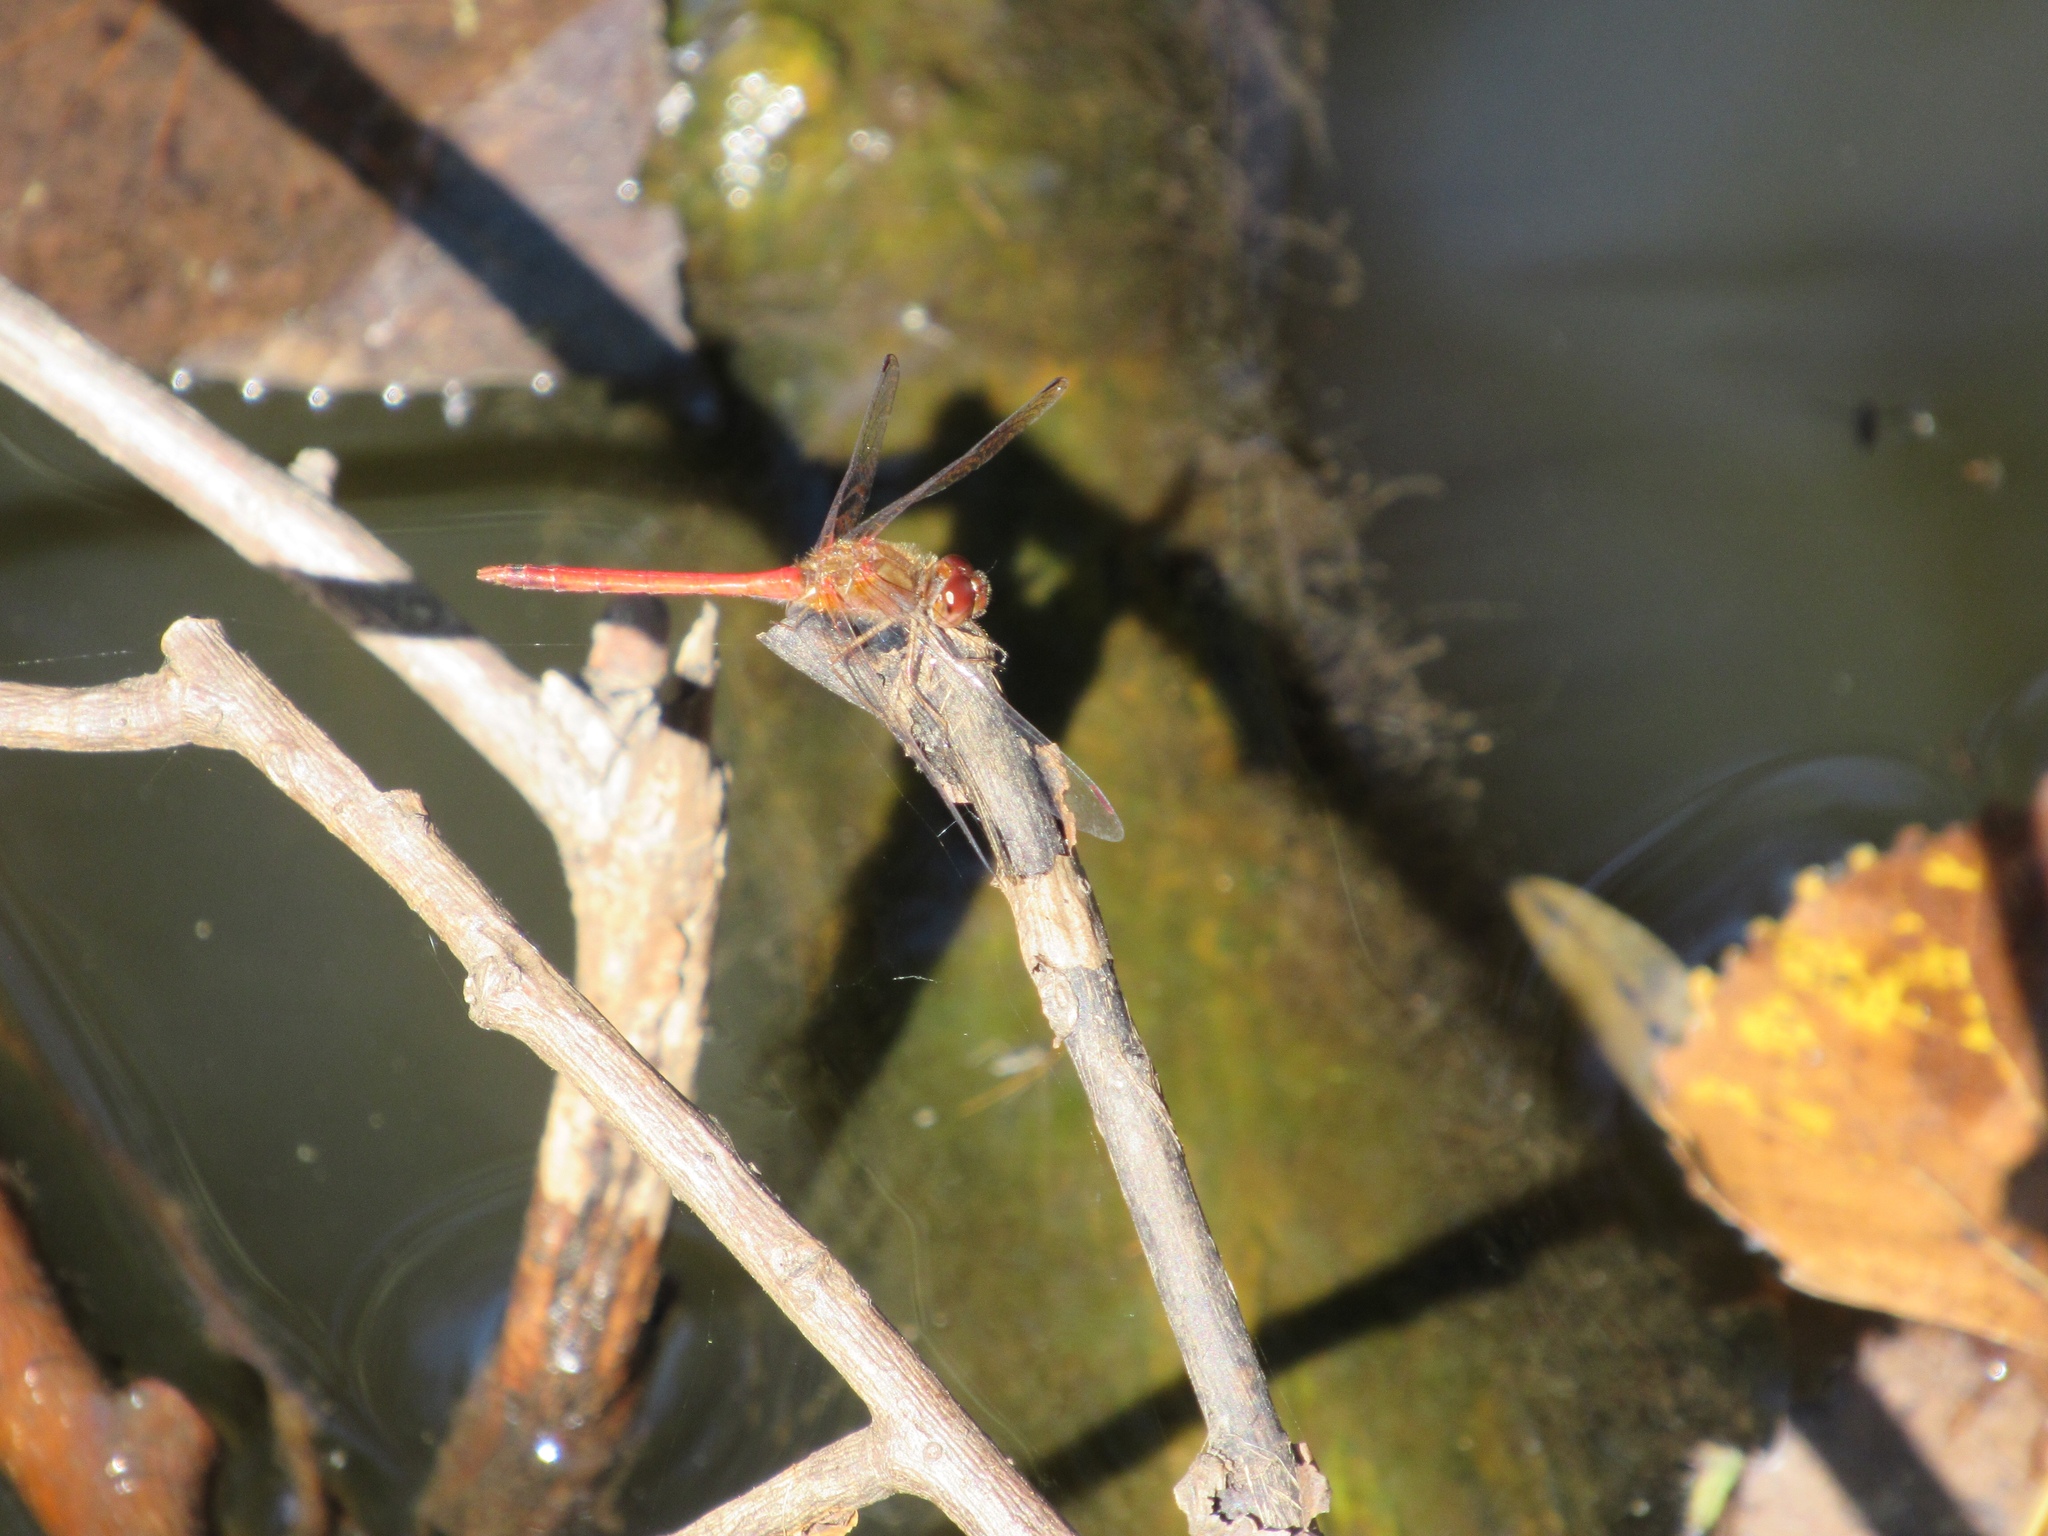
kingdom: Animalia
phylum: Arthropoda
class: Insecta
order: Odonata
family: Libellulidae
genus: Sympetrum
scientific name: Sympetrum vicinum
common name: Autumn meadowhawk
